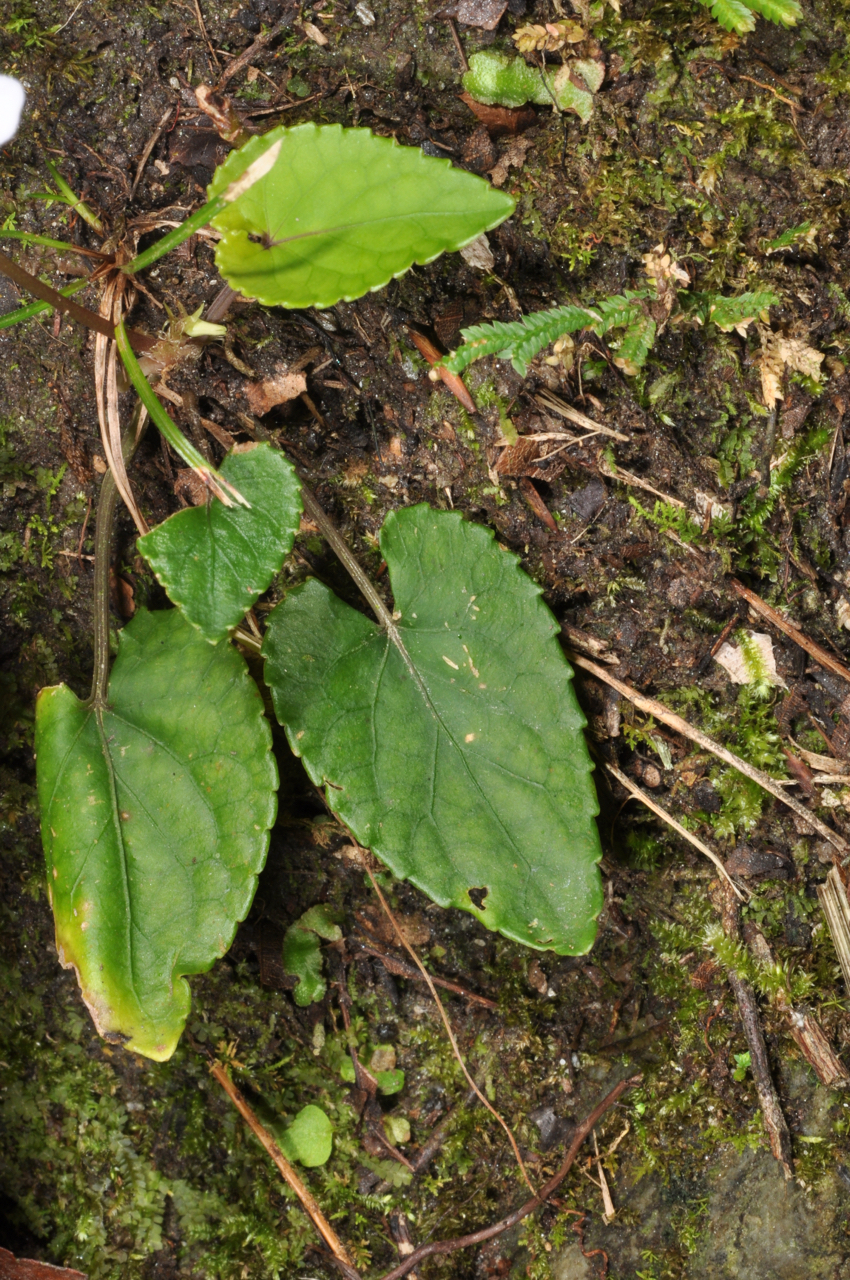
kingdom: Plantae
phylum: Tracheophyta
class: Magnoliopsida
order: Malpighiales
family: Violaceae
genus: Viola
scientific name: Viola formosana
